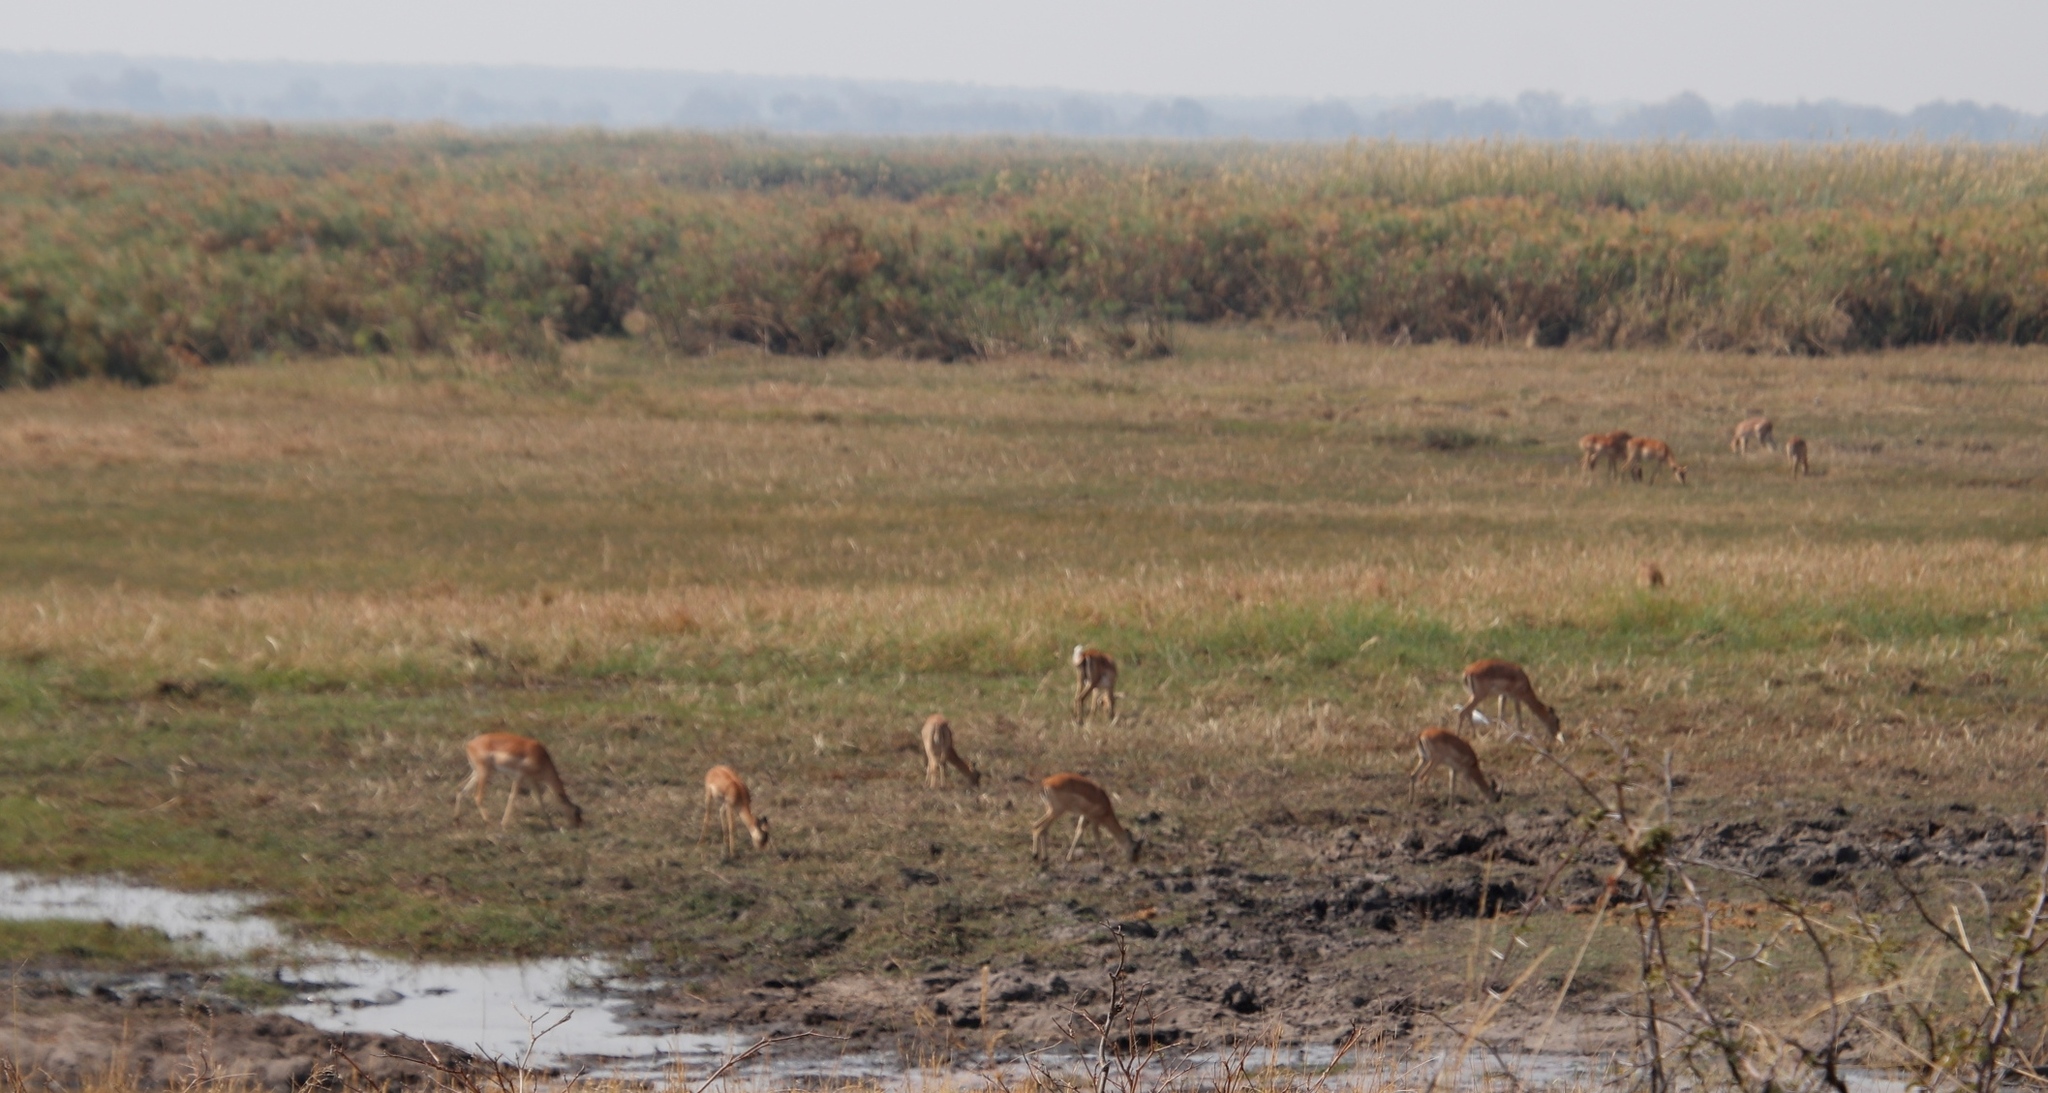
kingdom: Plantae
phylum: Tracheophyta
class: Liliopsida
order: Poales
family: Poaceae
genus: Phragmites
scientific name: Phragmites australis
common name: Common reed
